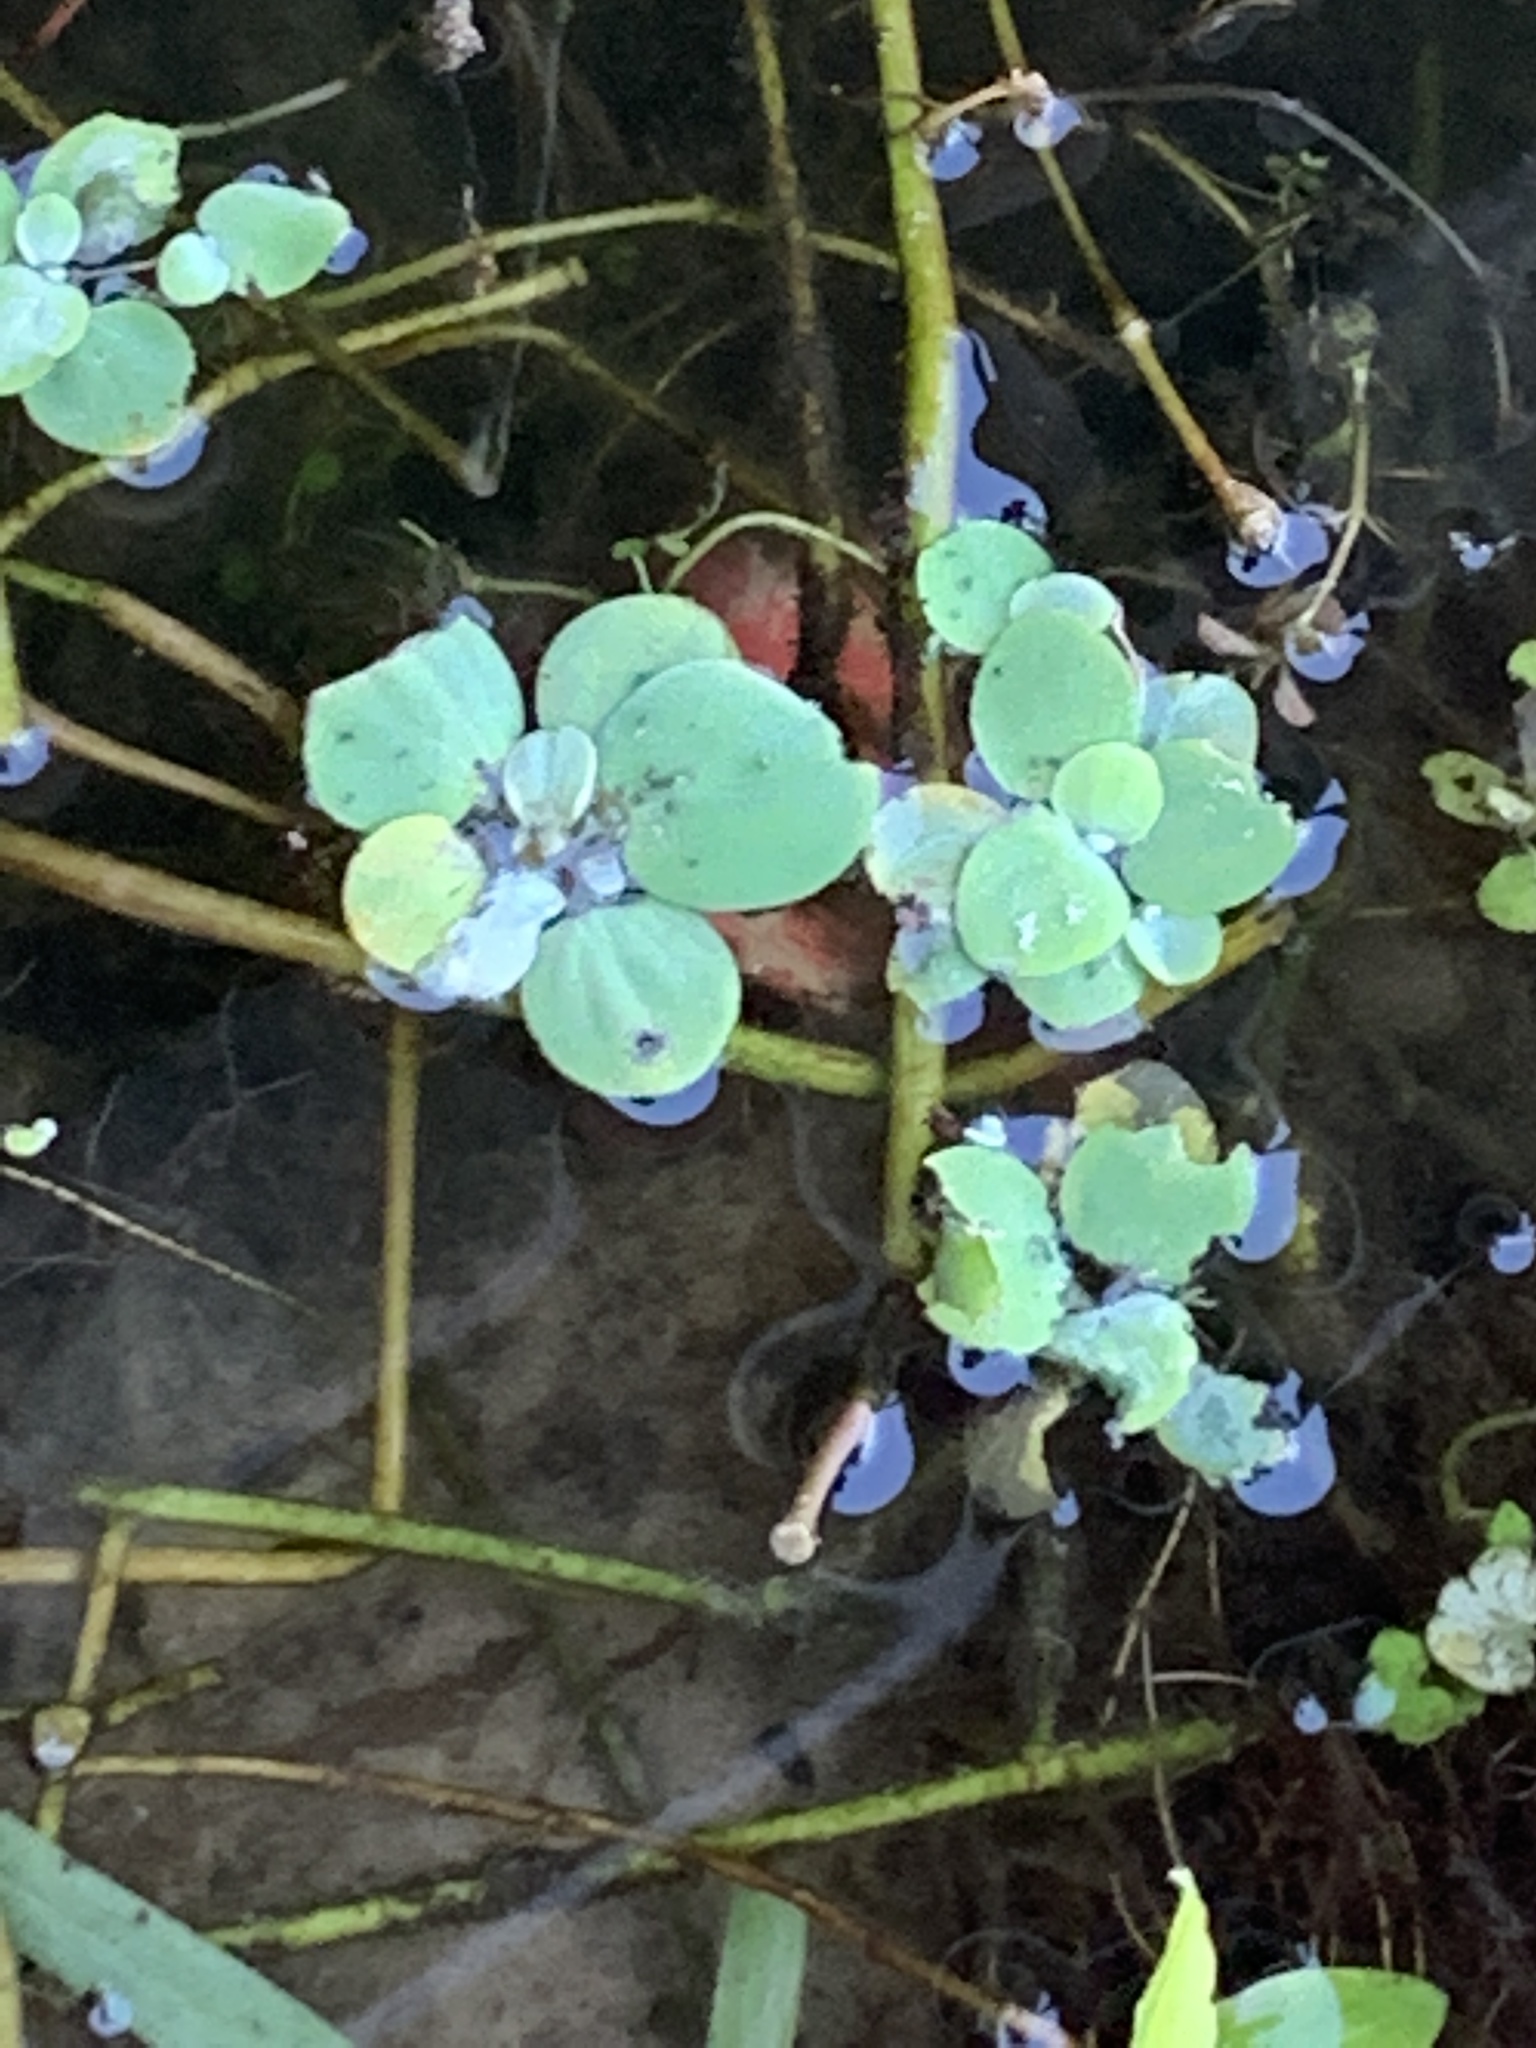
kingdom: Plantae
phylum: Tracheophyta
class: Liliopsida
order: Alismatales
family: Araceae
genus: Pistia
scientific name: Pistia stratiotes
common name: Water lettuce
